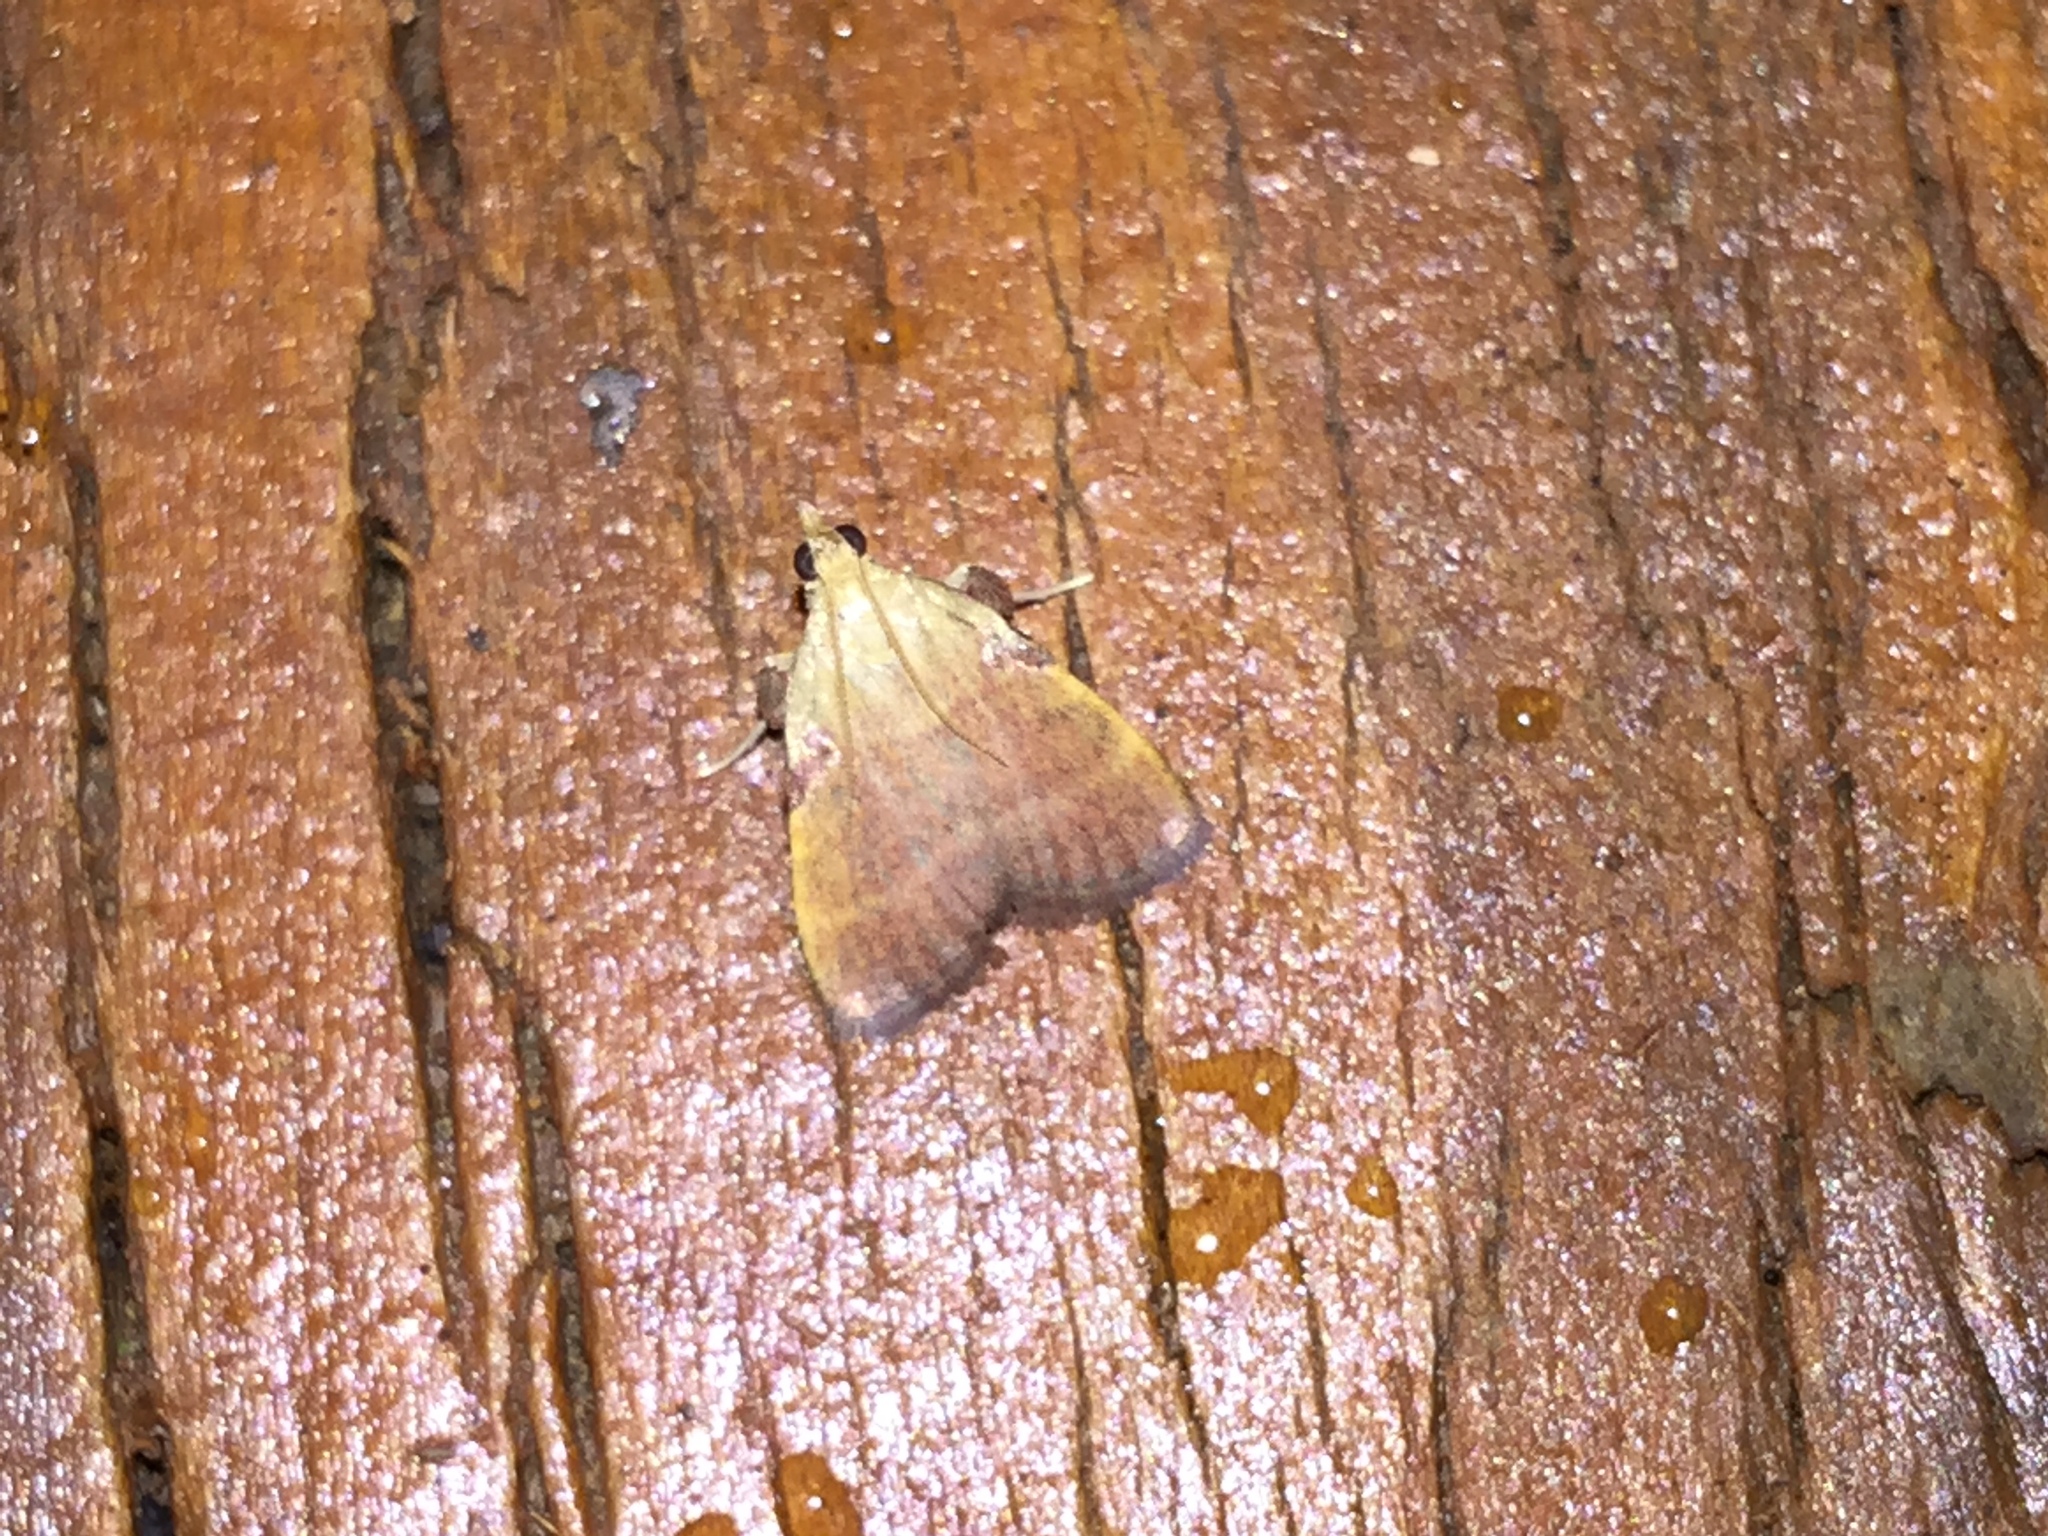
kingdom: Animalia
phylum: Arthropoda
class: Insecta
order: Lepidoptera
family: Pyralidae
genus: Condylolomia
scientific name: Condylolomia participialis
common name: Drab condylolomia moth
